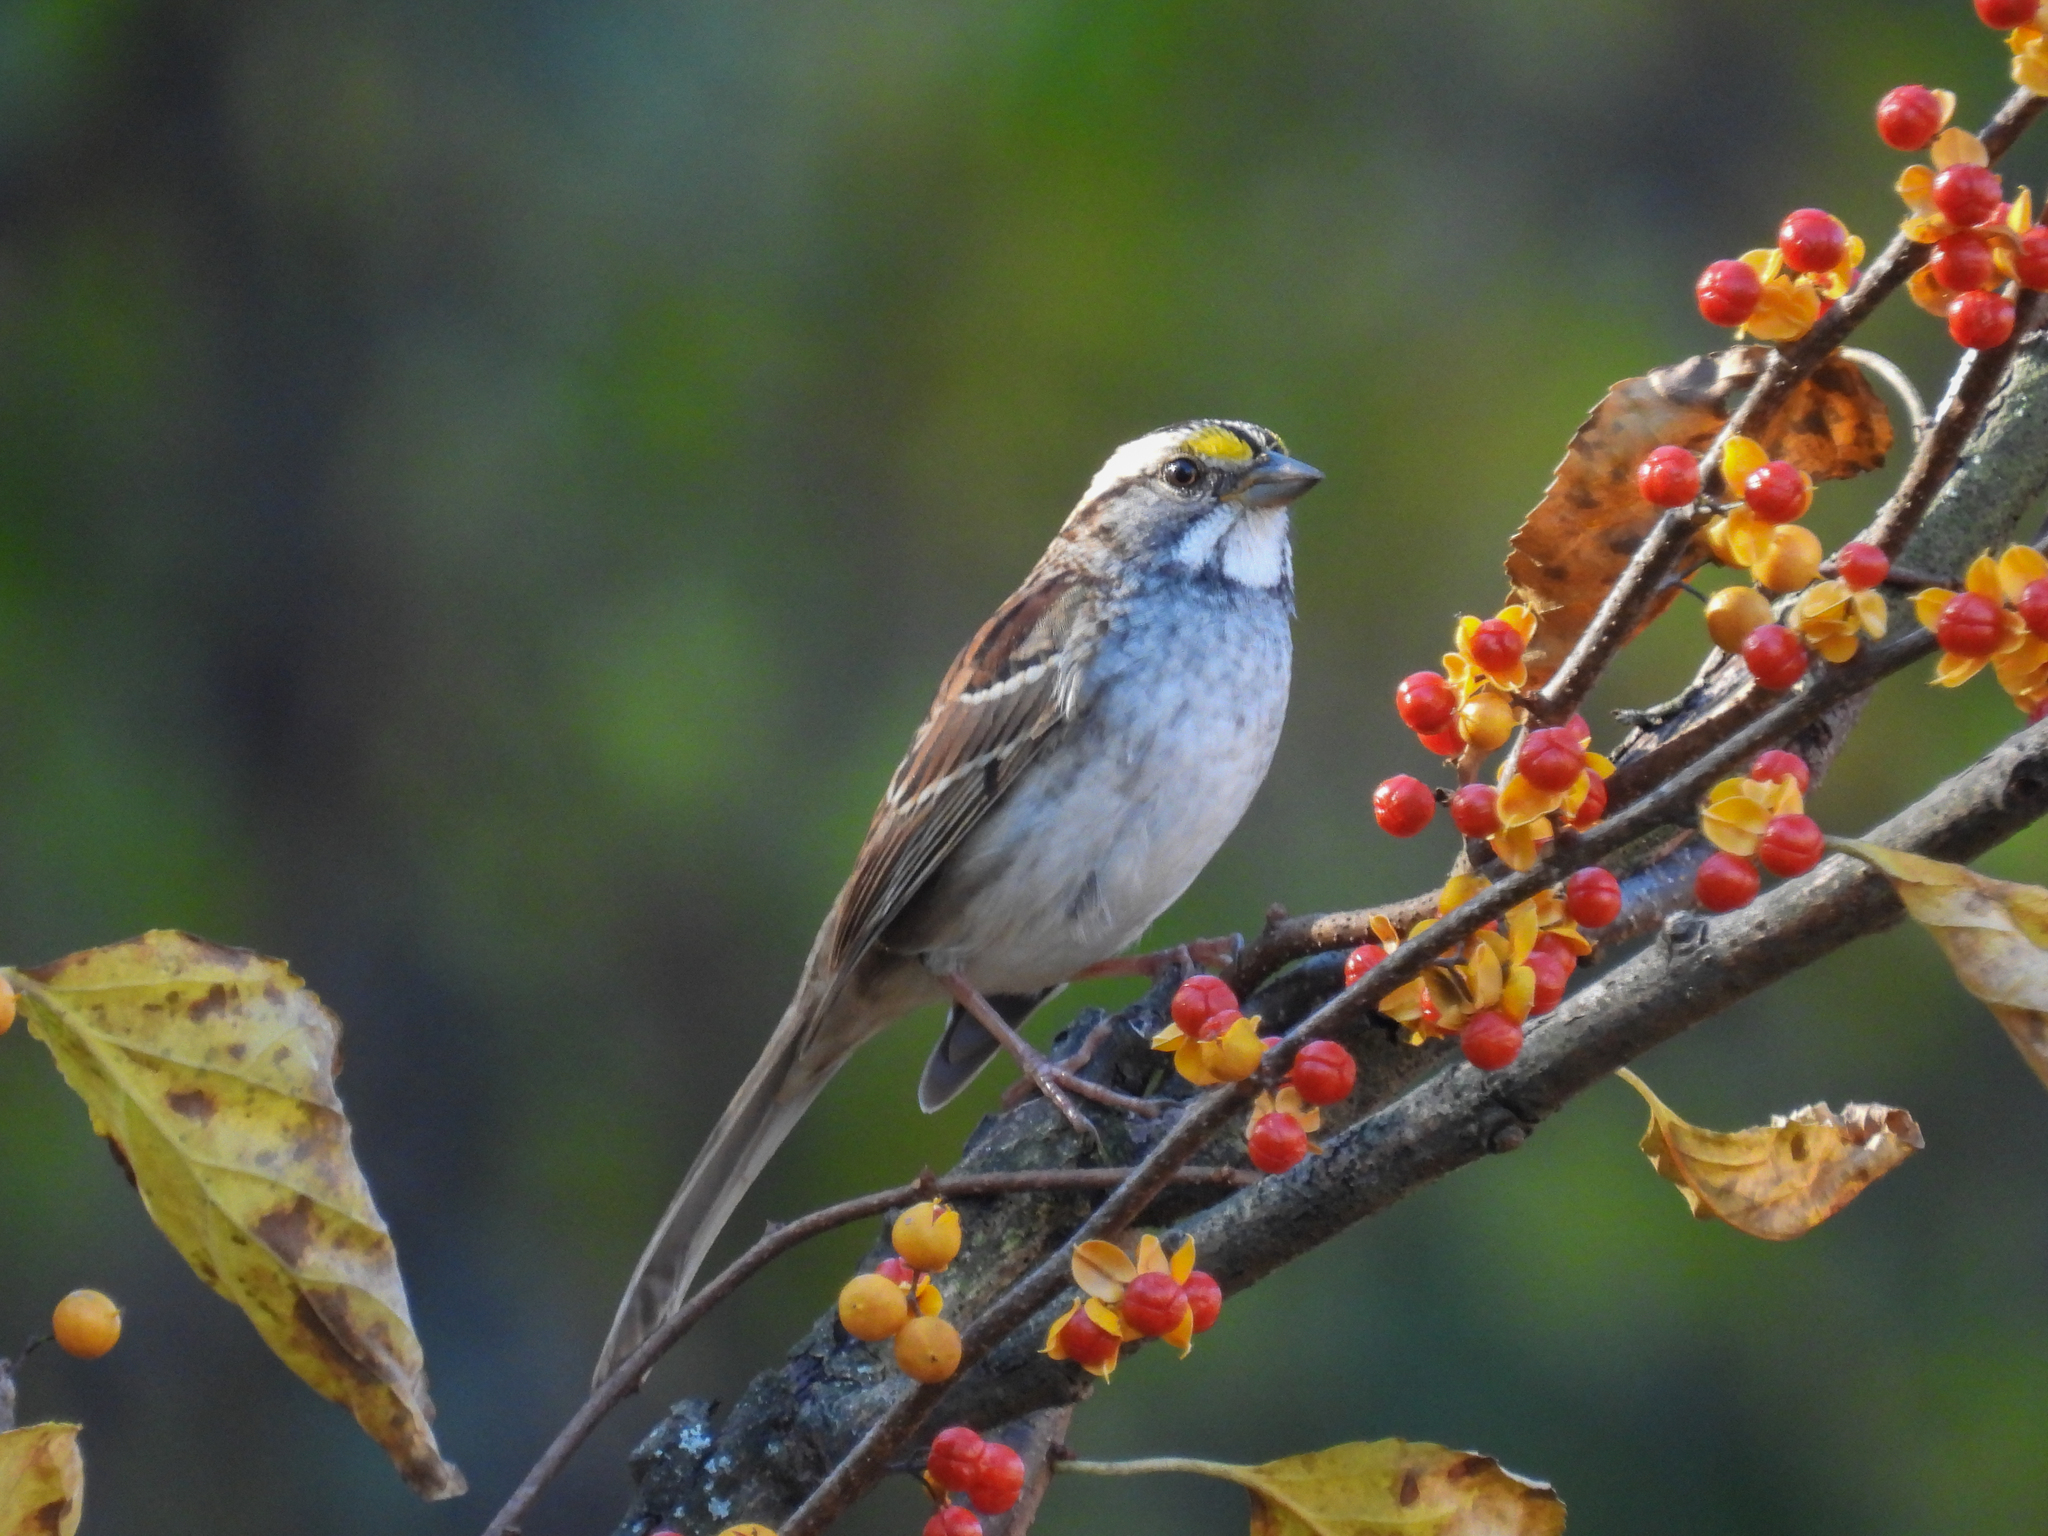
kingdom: Animalia
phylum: Chordata
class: Aves
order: Passeriformes
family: Passerellidae
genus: Zonotrichia
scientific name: Zonotrichia albicollis
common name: White-throated sparrow
